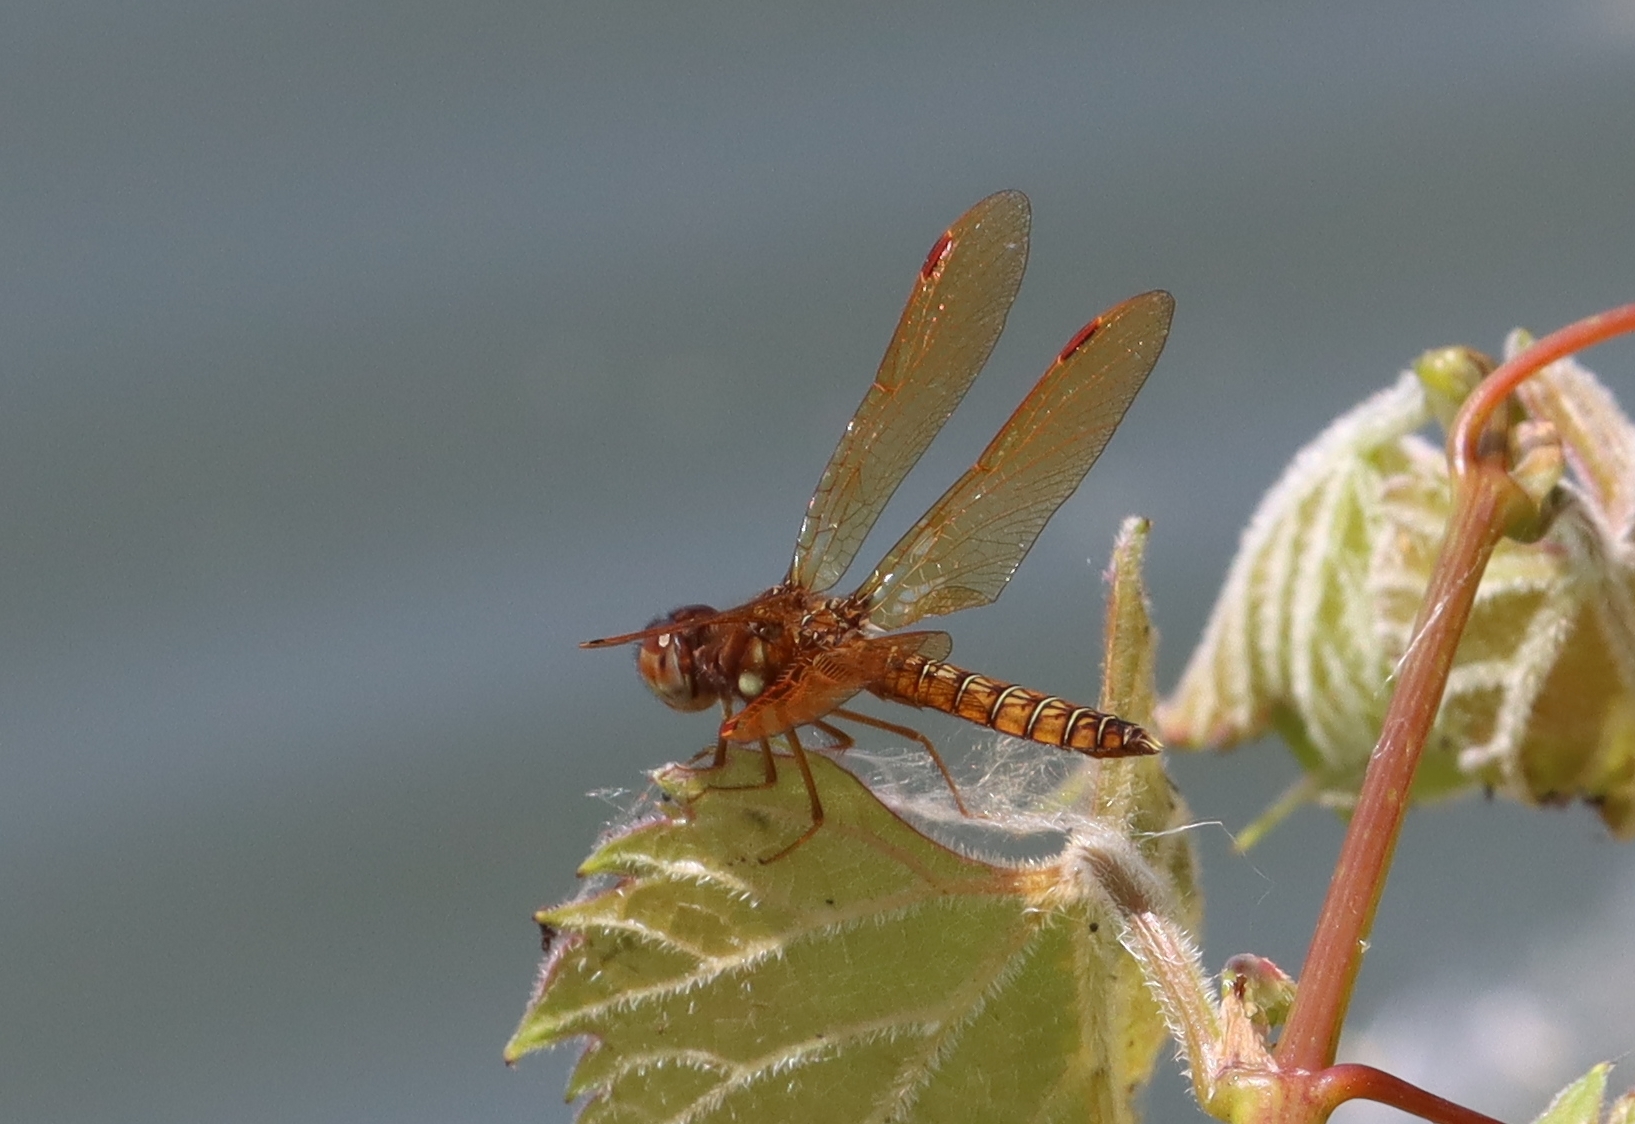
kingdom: Animalia
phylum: Arthropoda
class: Insecta
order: Odonata
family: Libellulidae
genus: Perithemis
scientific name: Perithemis tenera
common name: Eastern amberwing
